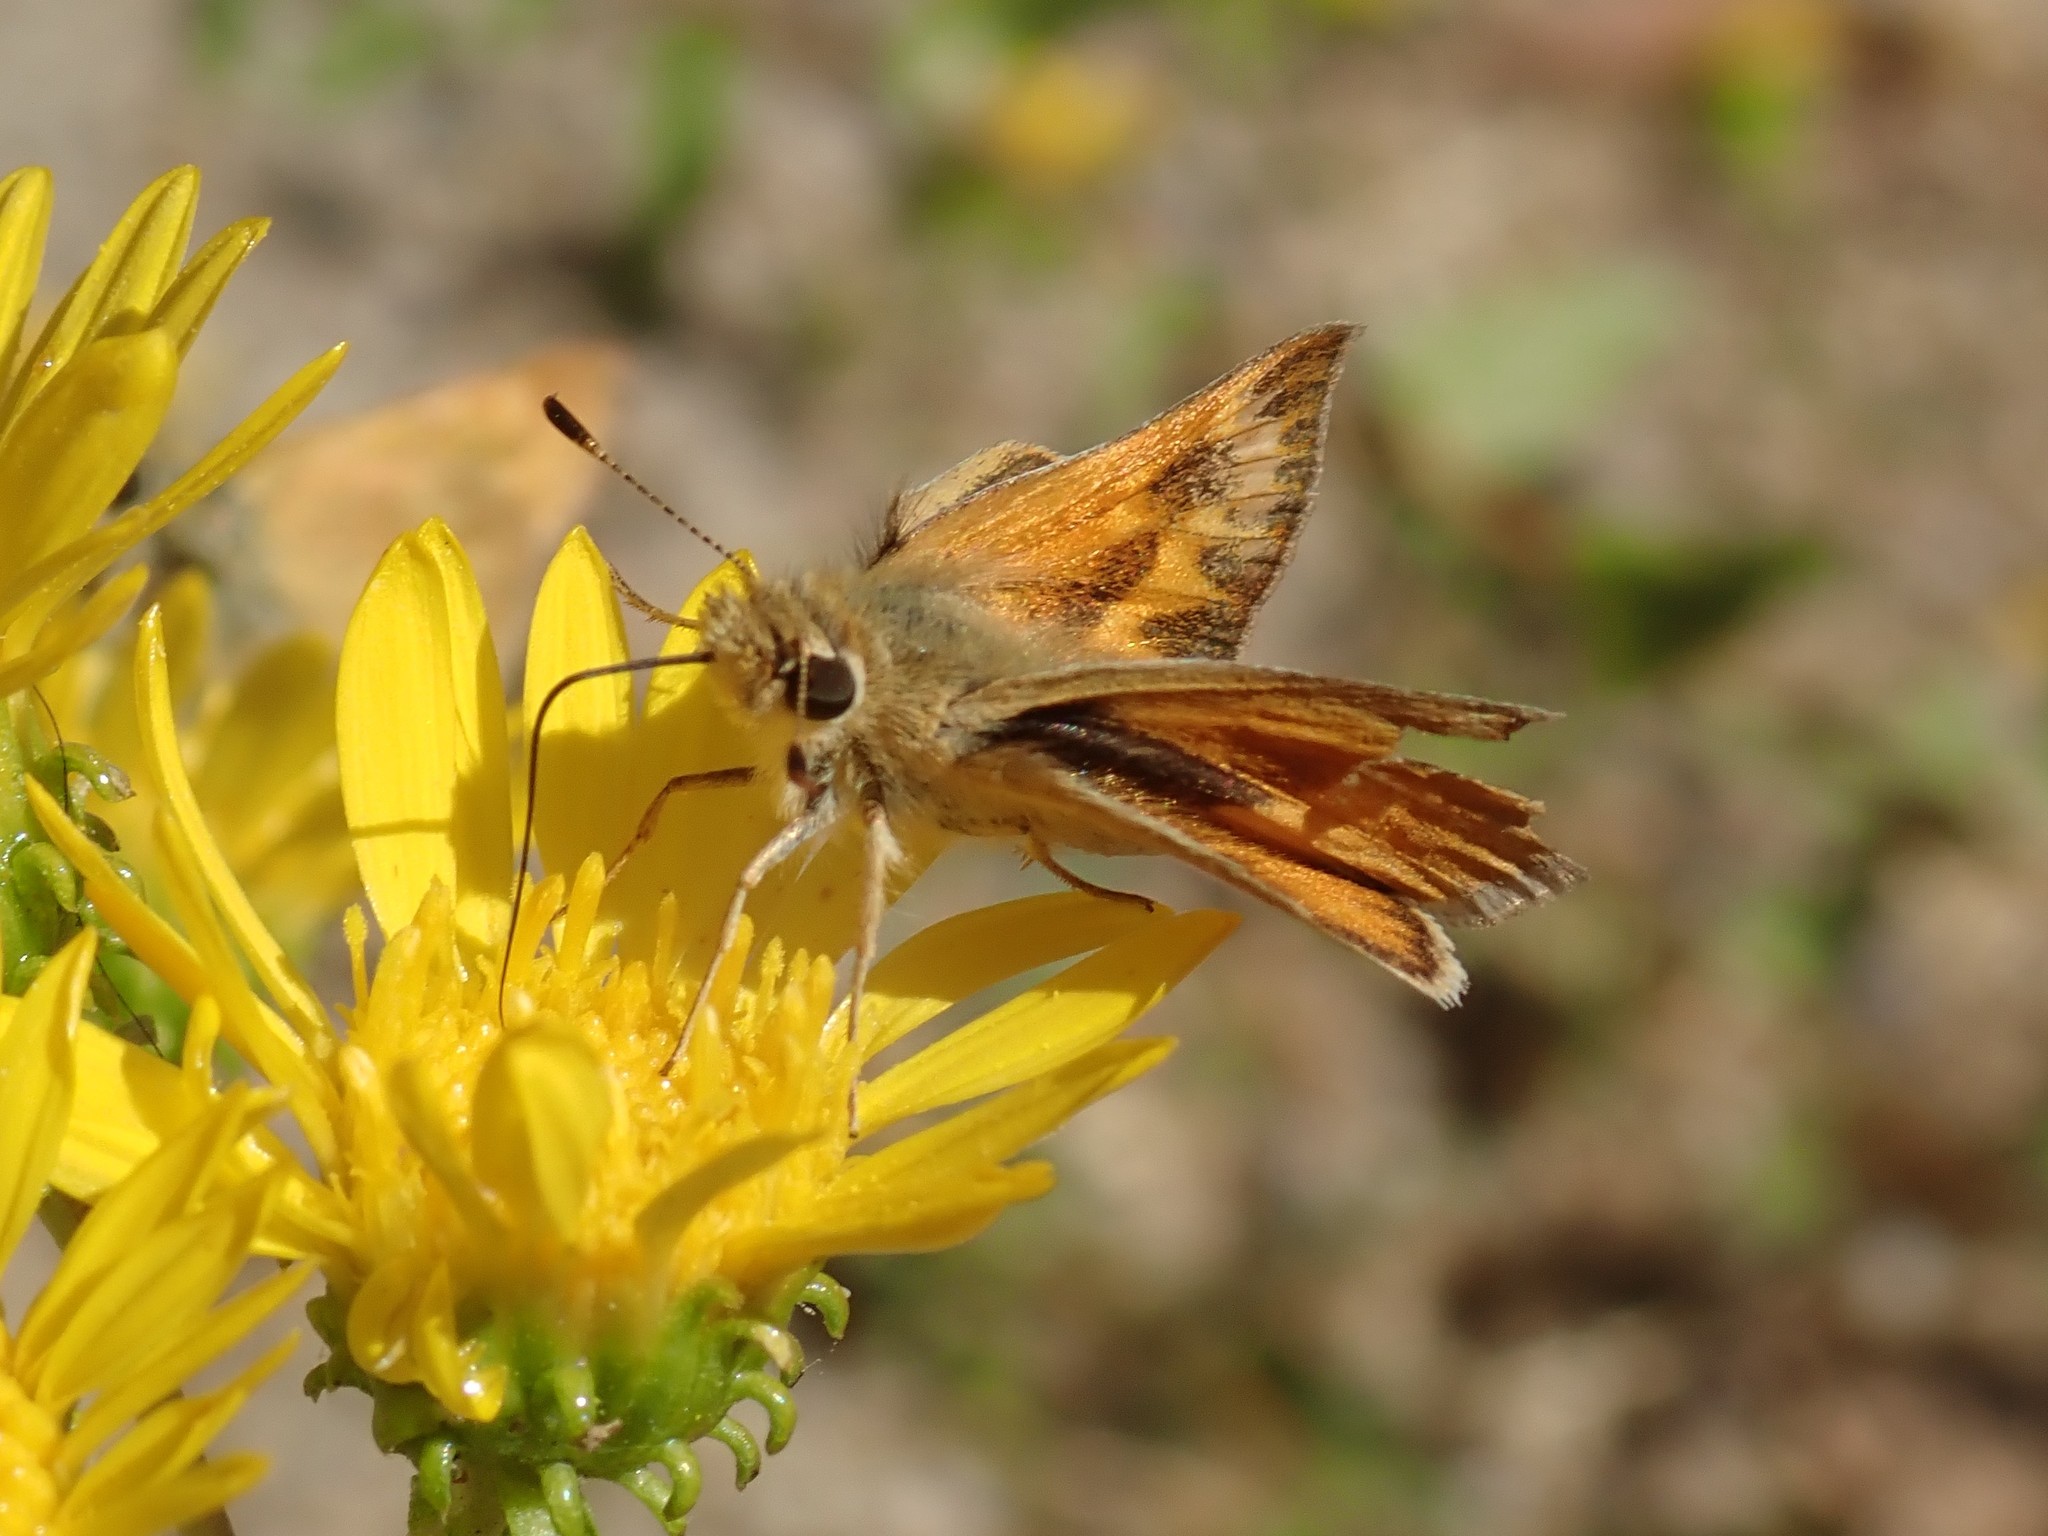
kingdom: Animalia
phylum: Arthropoda
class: Insecta
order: Lepidoptera
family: Hesperiidae
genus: Ochlodes
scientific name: Ochlodes sylvanoides
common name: Woodland skipper
